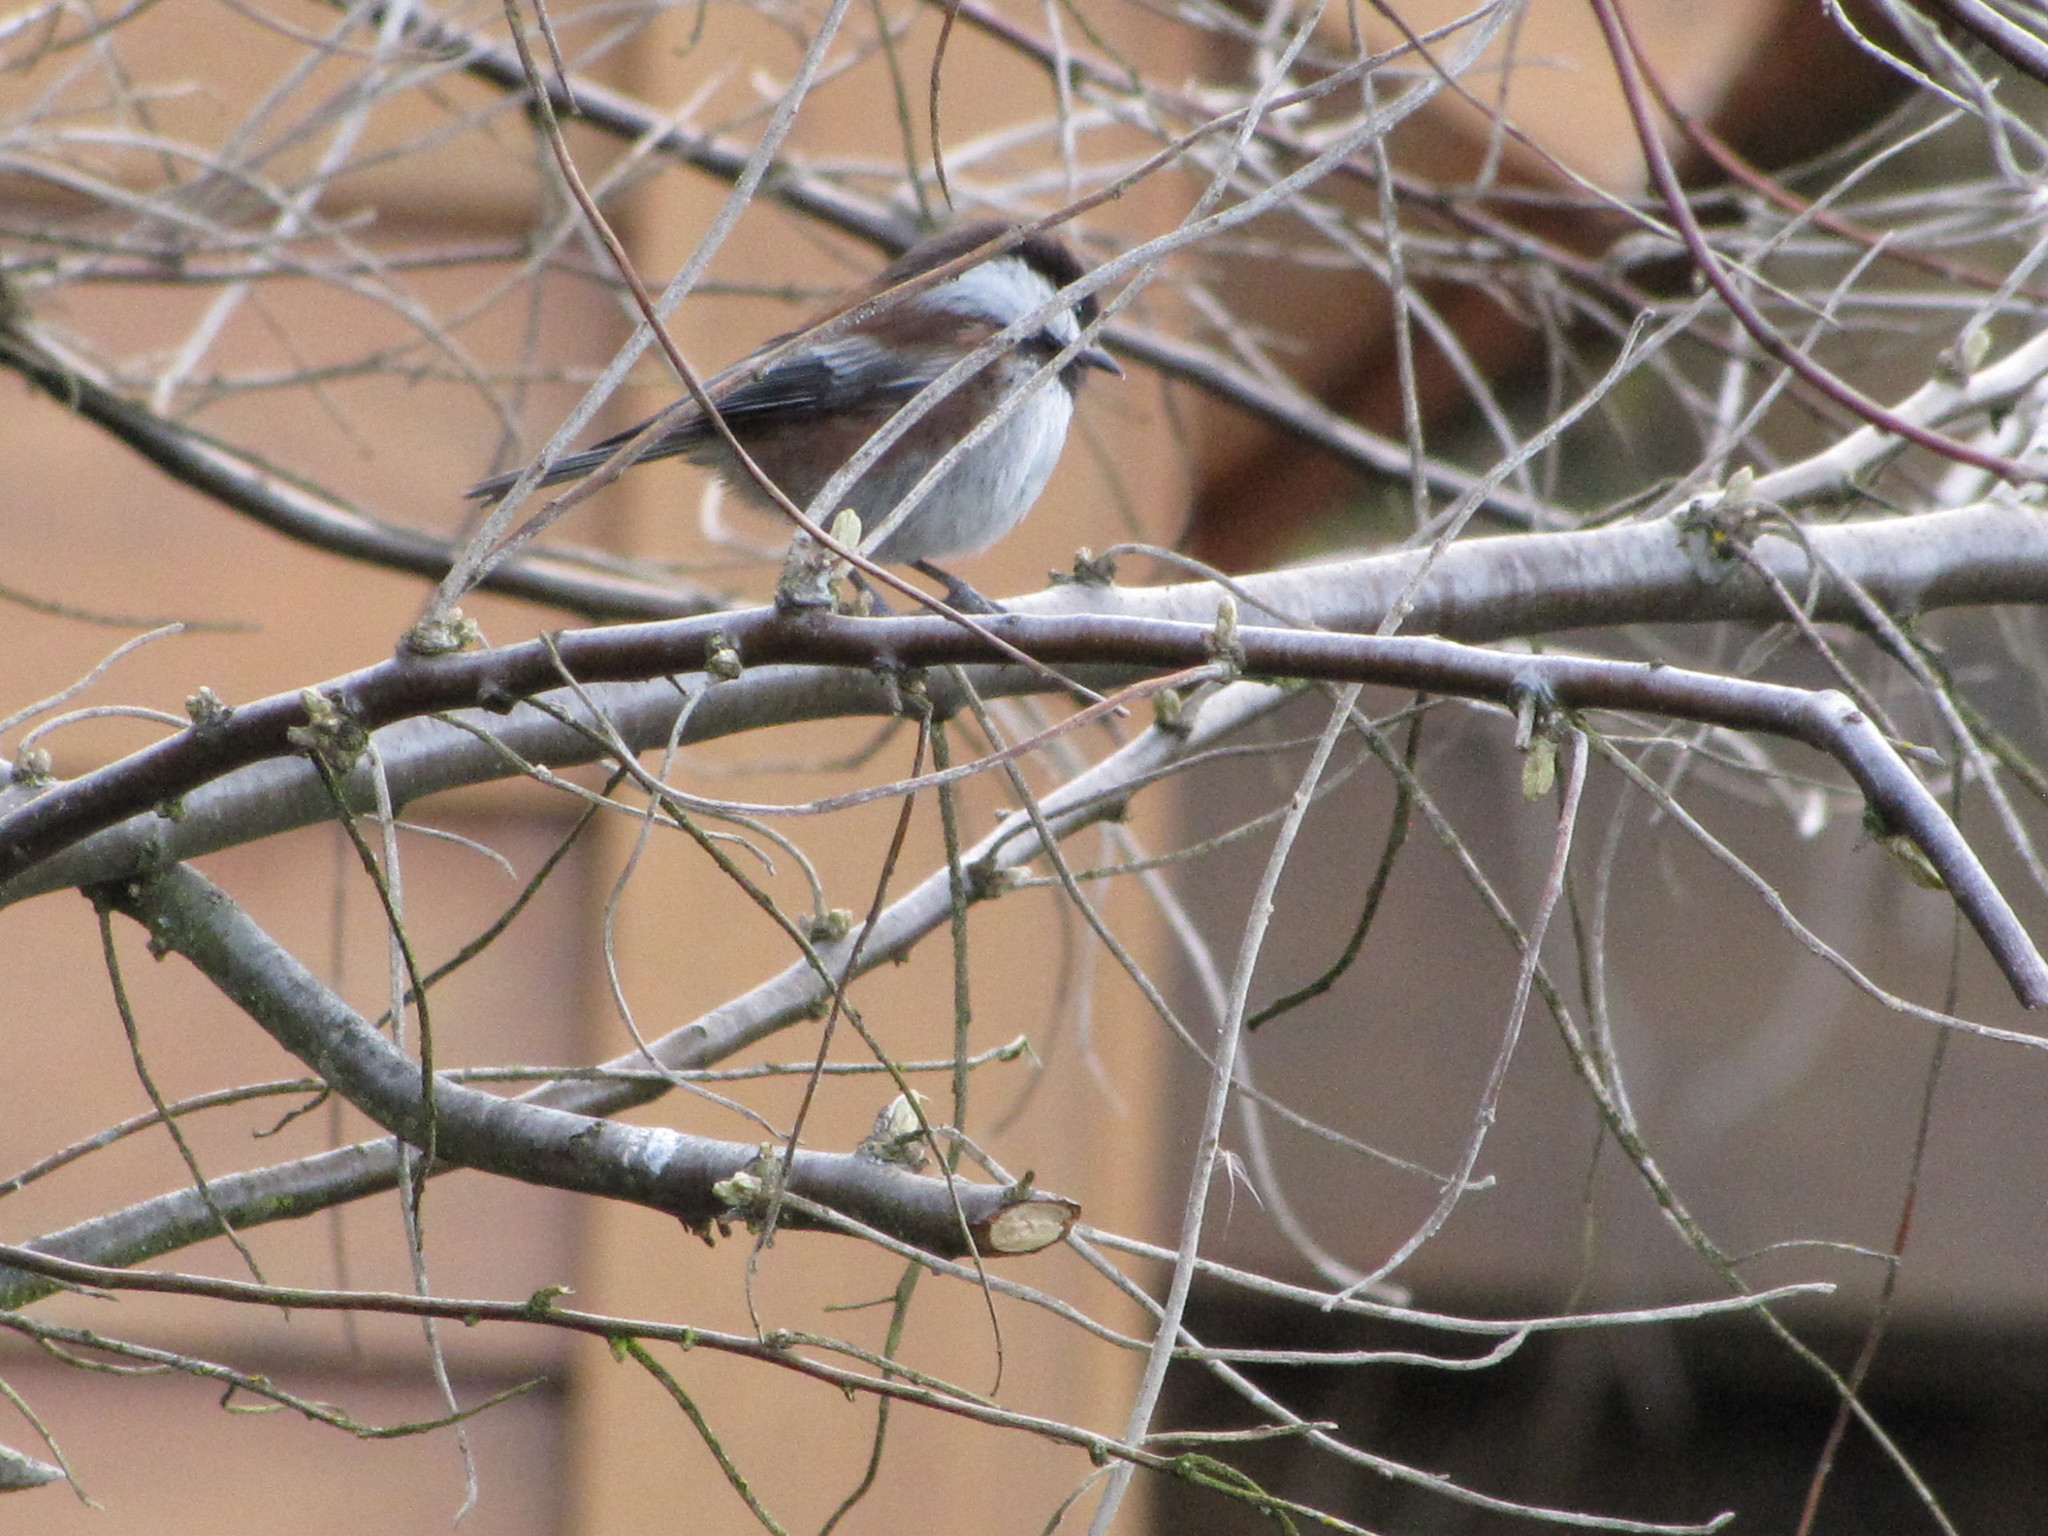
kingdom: Animalia
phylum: Chordata
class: Aves
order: Passeriformes
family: Paridae
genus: Poecile
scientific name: Poecile rufescens
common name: Chestnut-backed chickadee
